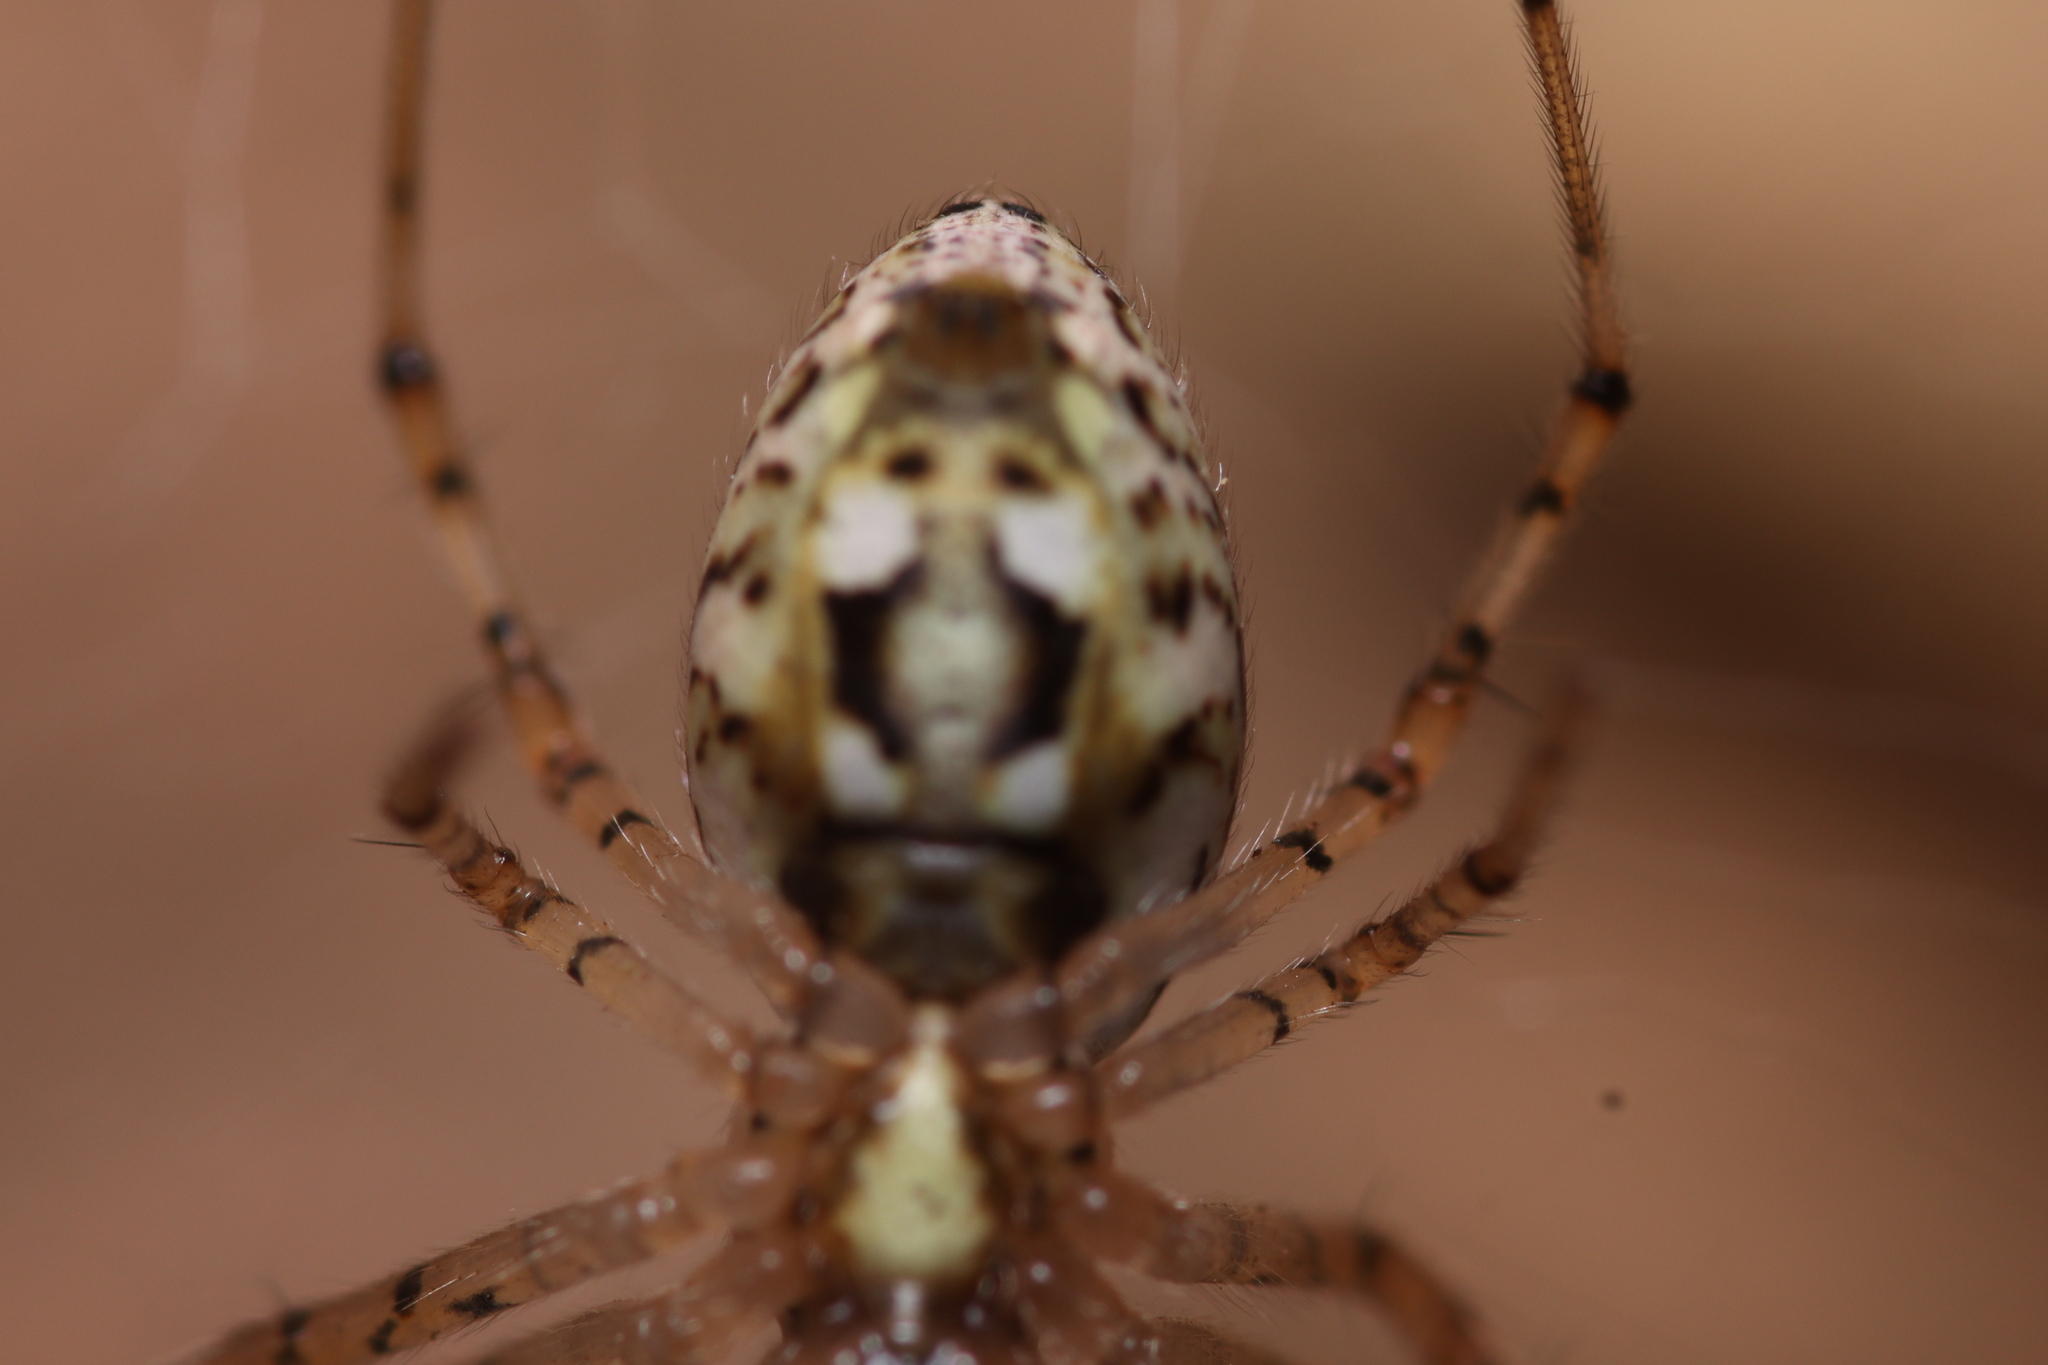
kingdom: Animalia
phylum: Arthropoda
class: Arachnida
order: Araneae
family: Araneidae
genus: Nephilingis
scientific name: Nephilingis cruentata
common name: African hermit spider
